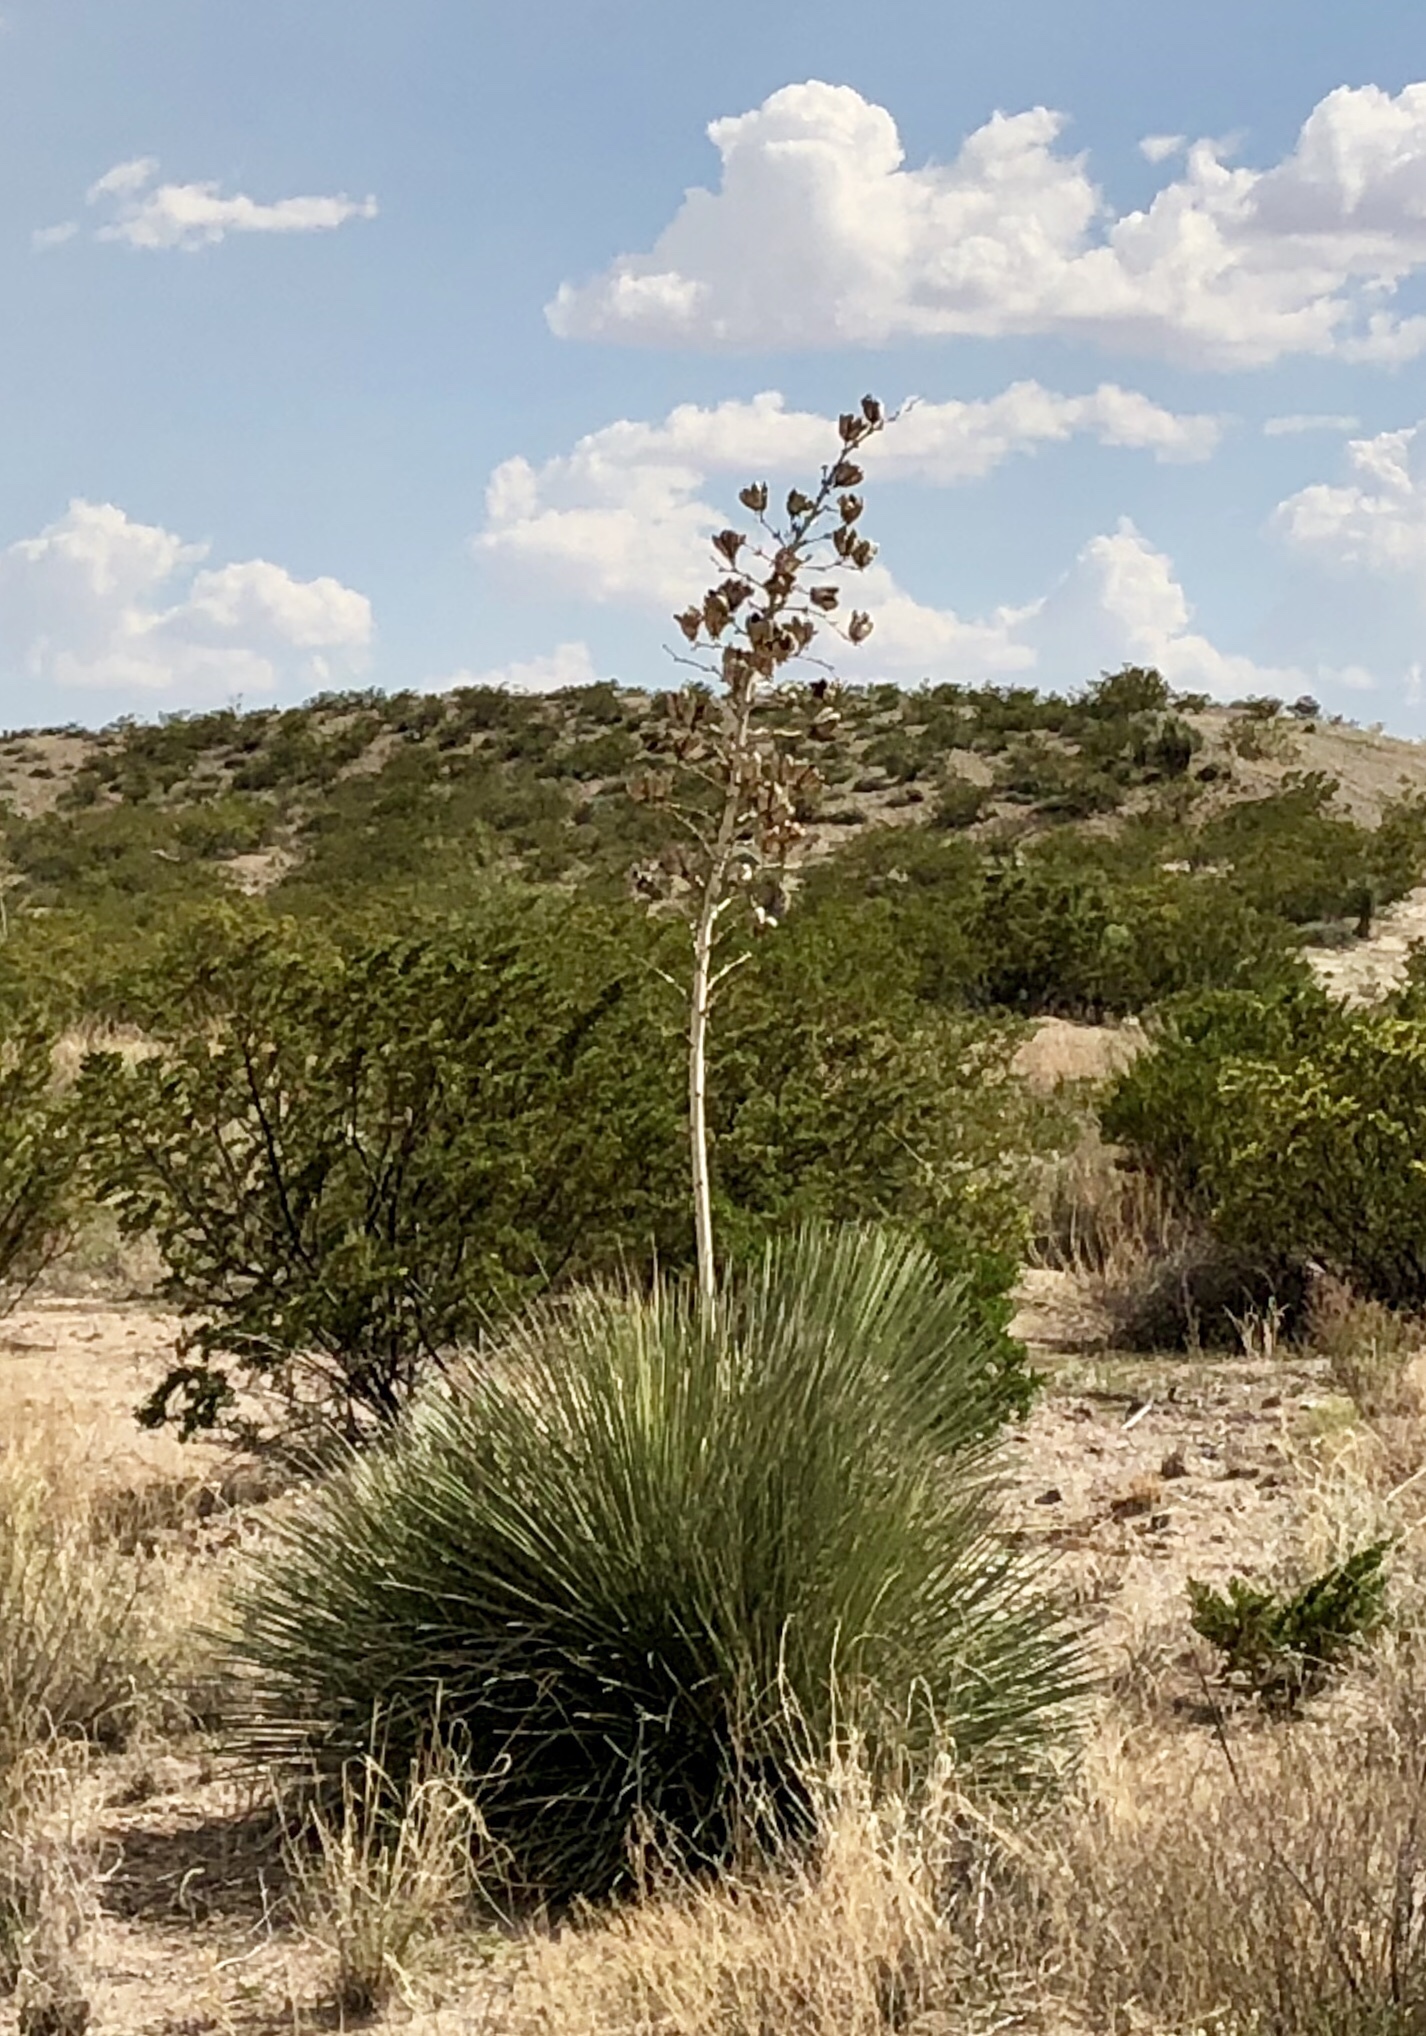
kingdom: Plantae
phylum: Tracheophyta
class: Liliopsida
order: Asparagales
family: Asparagaceae
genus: Yucca
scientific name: Yucca elata
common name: Palmella
